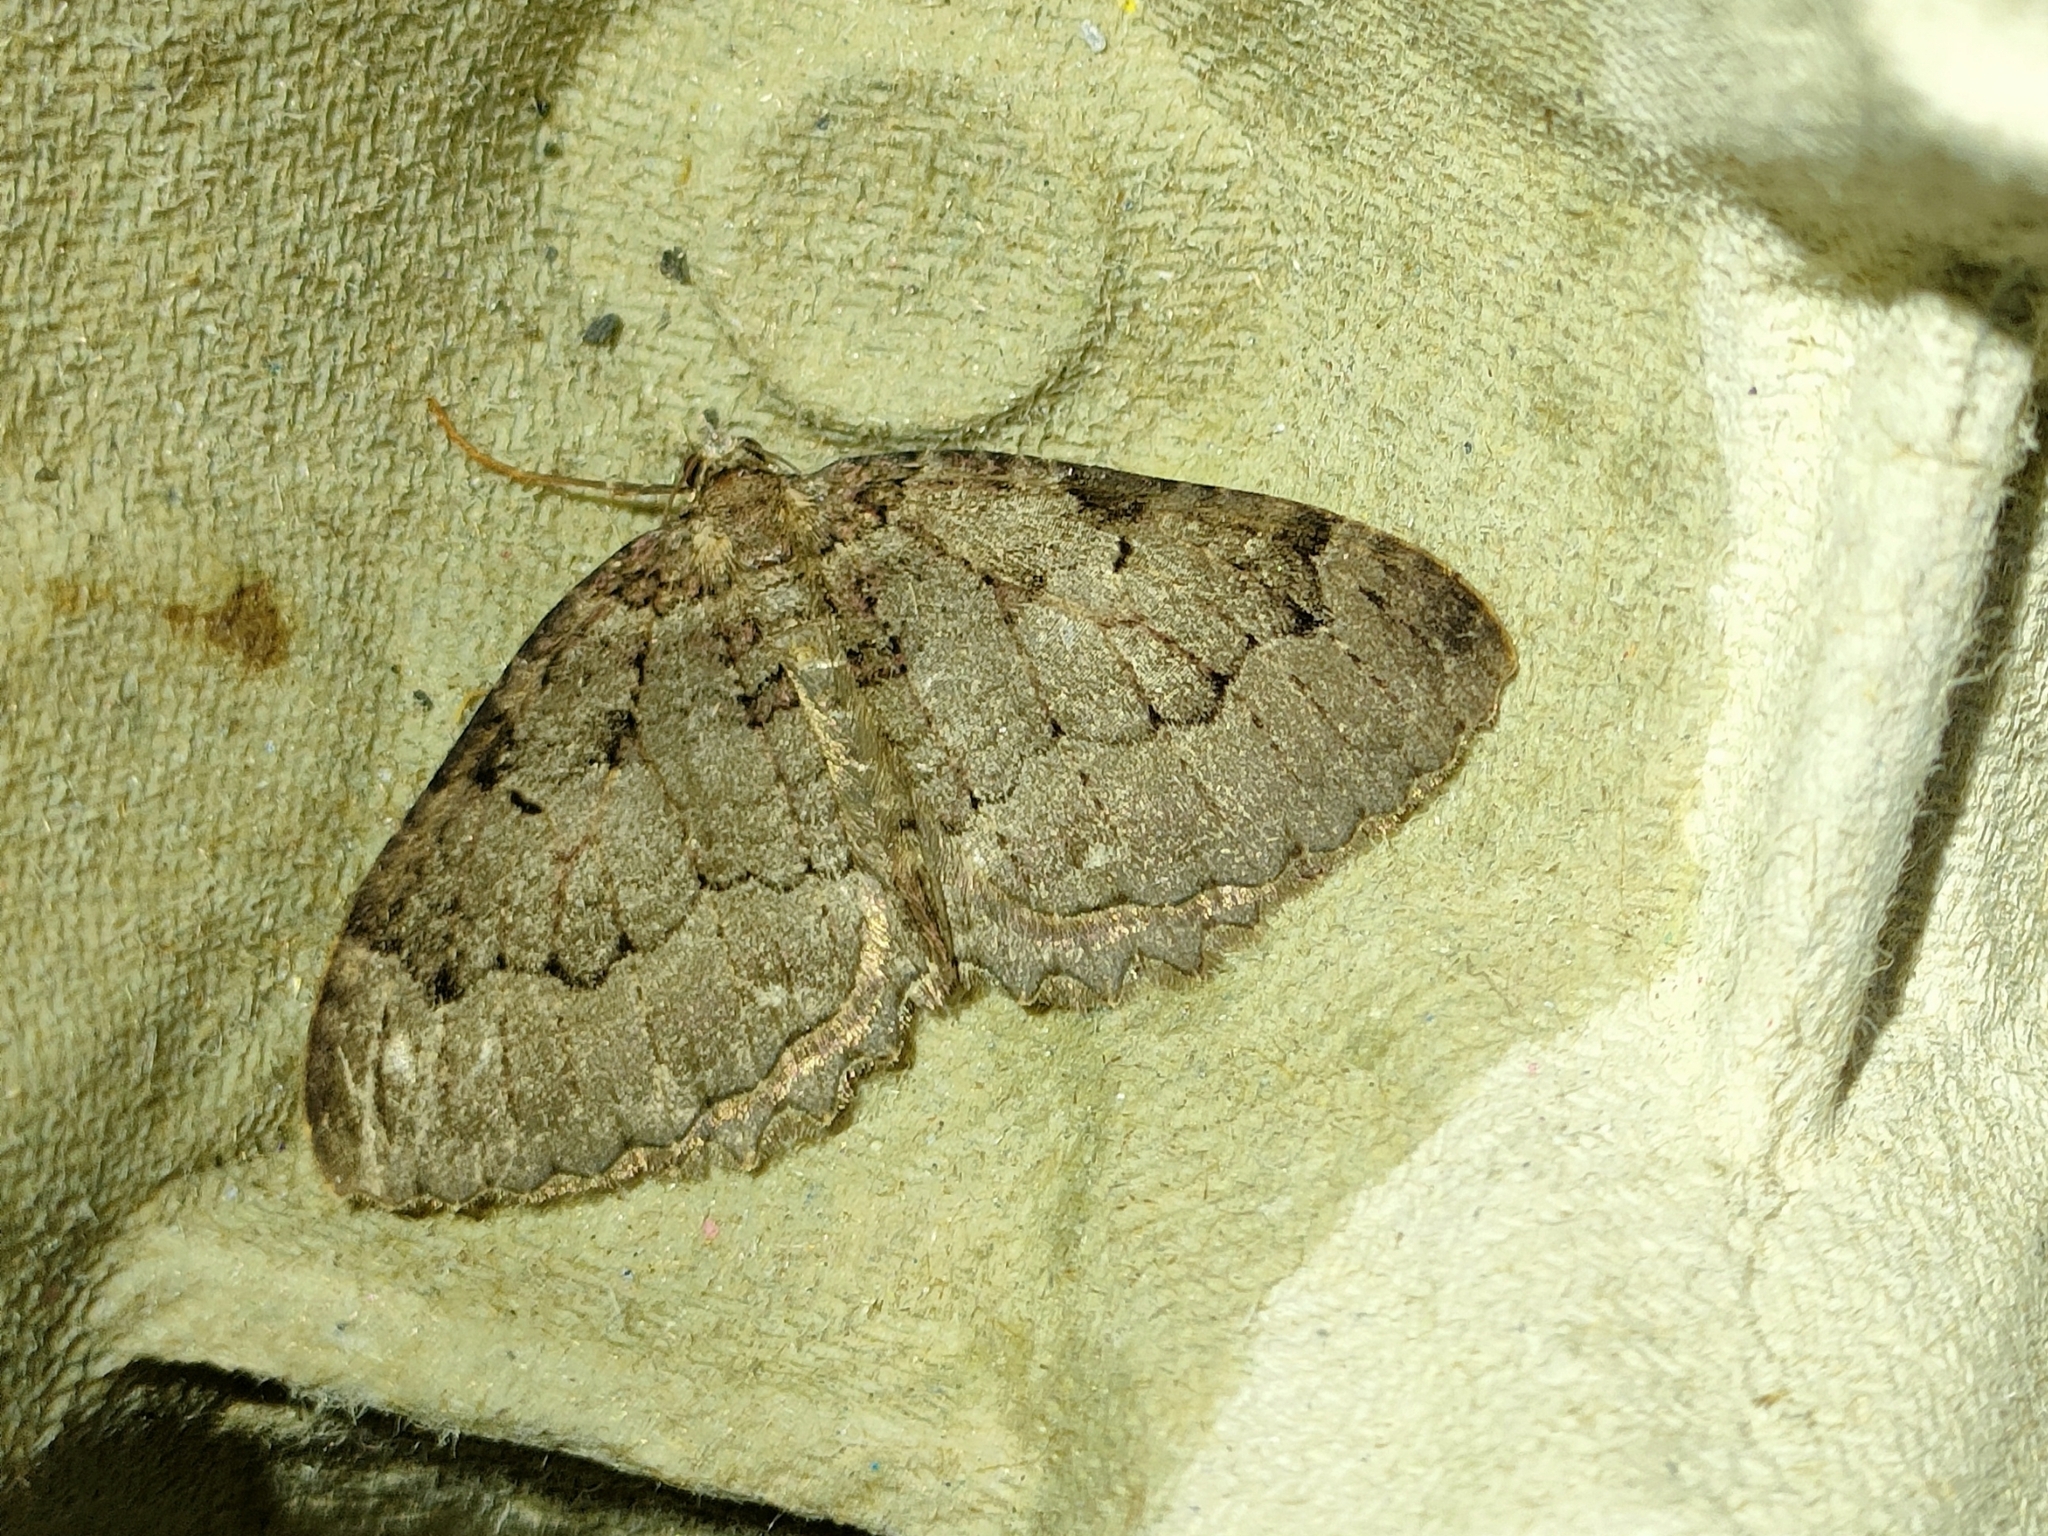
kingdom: Animalia
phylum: Arthropoda
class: Insecta
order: Lepidoptera
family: Geometridae
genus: Triphosa
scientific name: Triphosa dubitata
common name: Tissue
